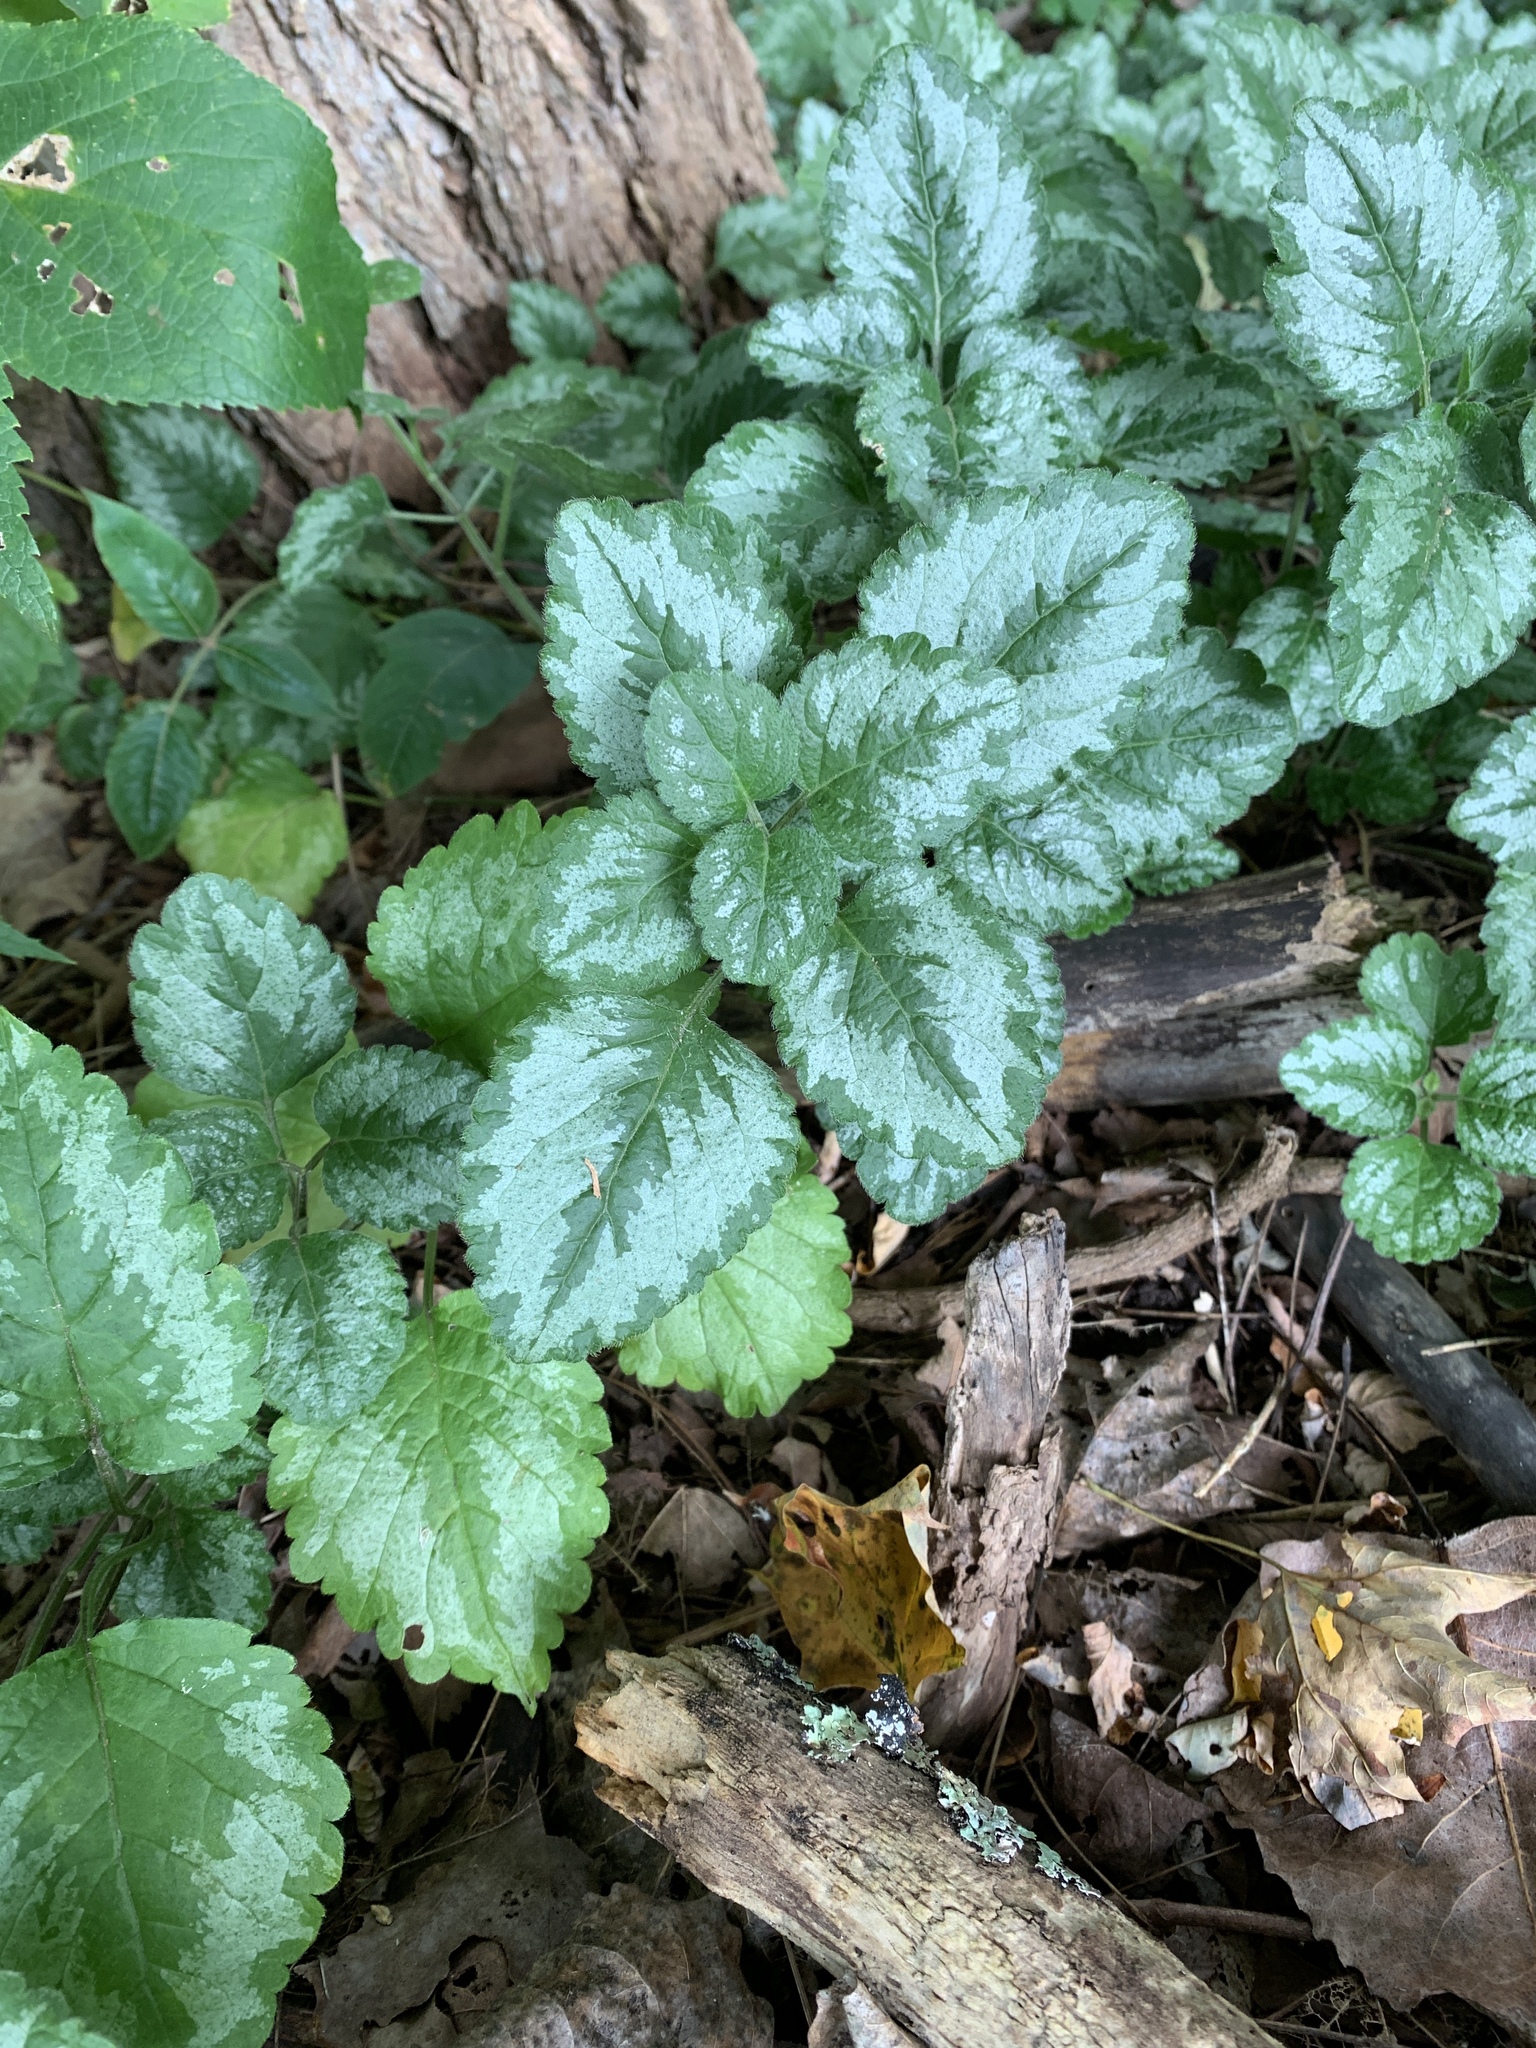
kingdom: Plantae
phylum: Tracheophyta
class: Magnoliopsida
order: Lamiales
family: Lamiaceae
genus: Lamium
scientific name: Lamium galeobdolon
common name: Yellow archangel
